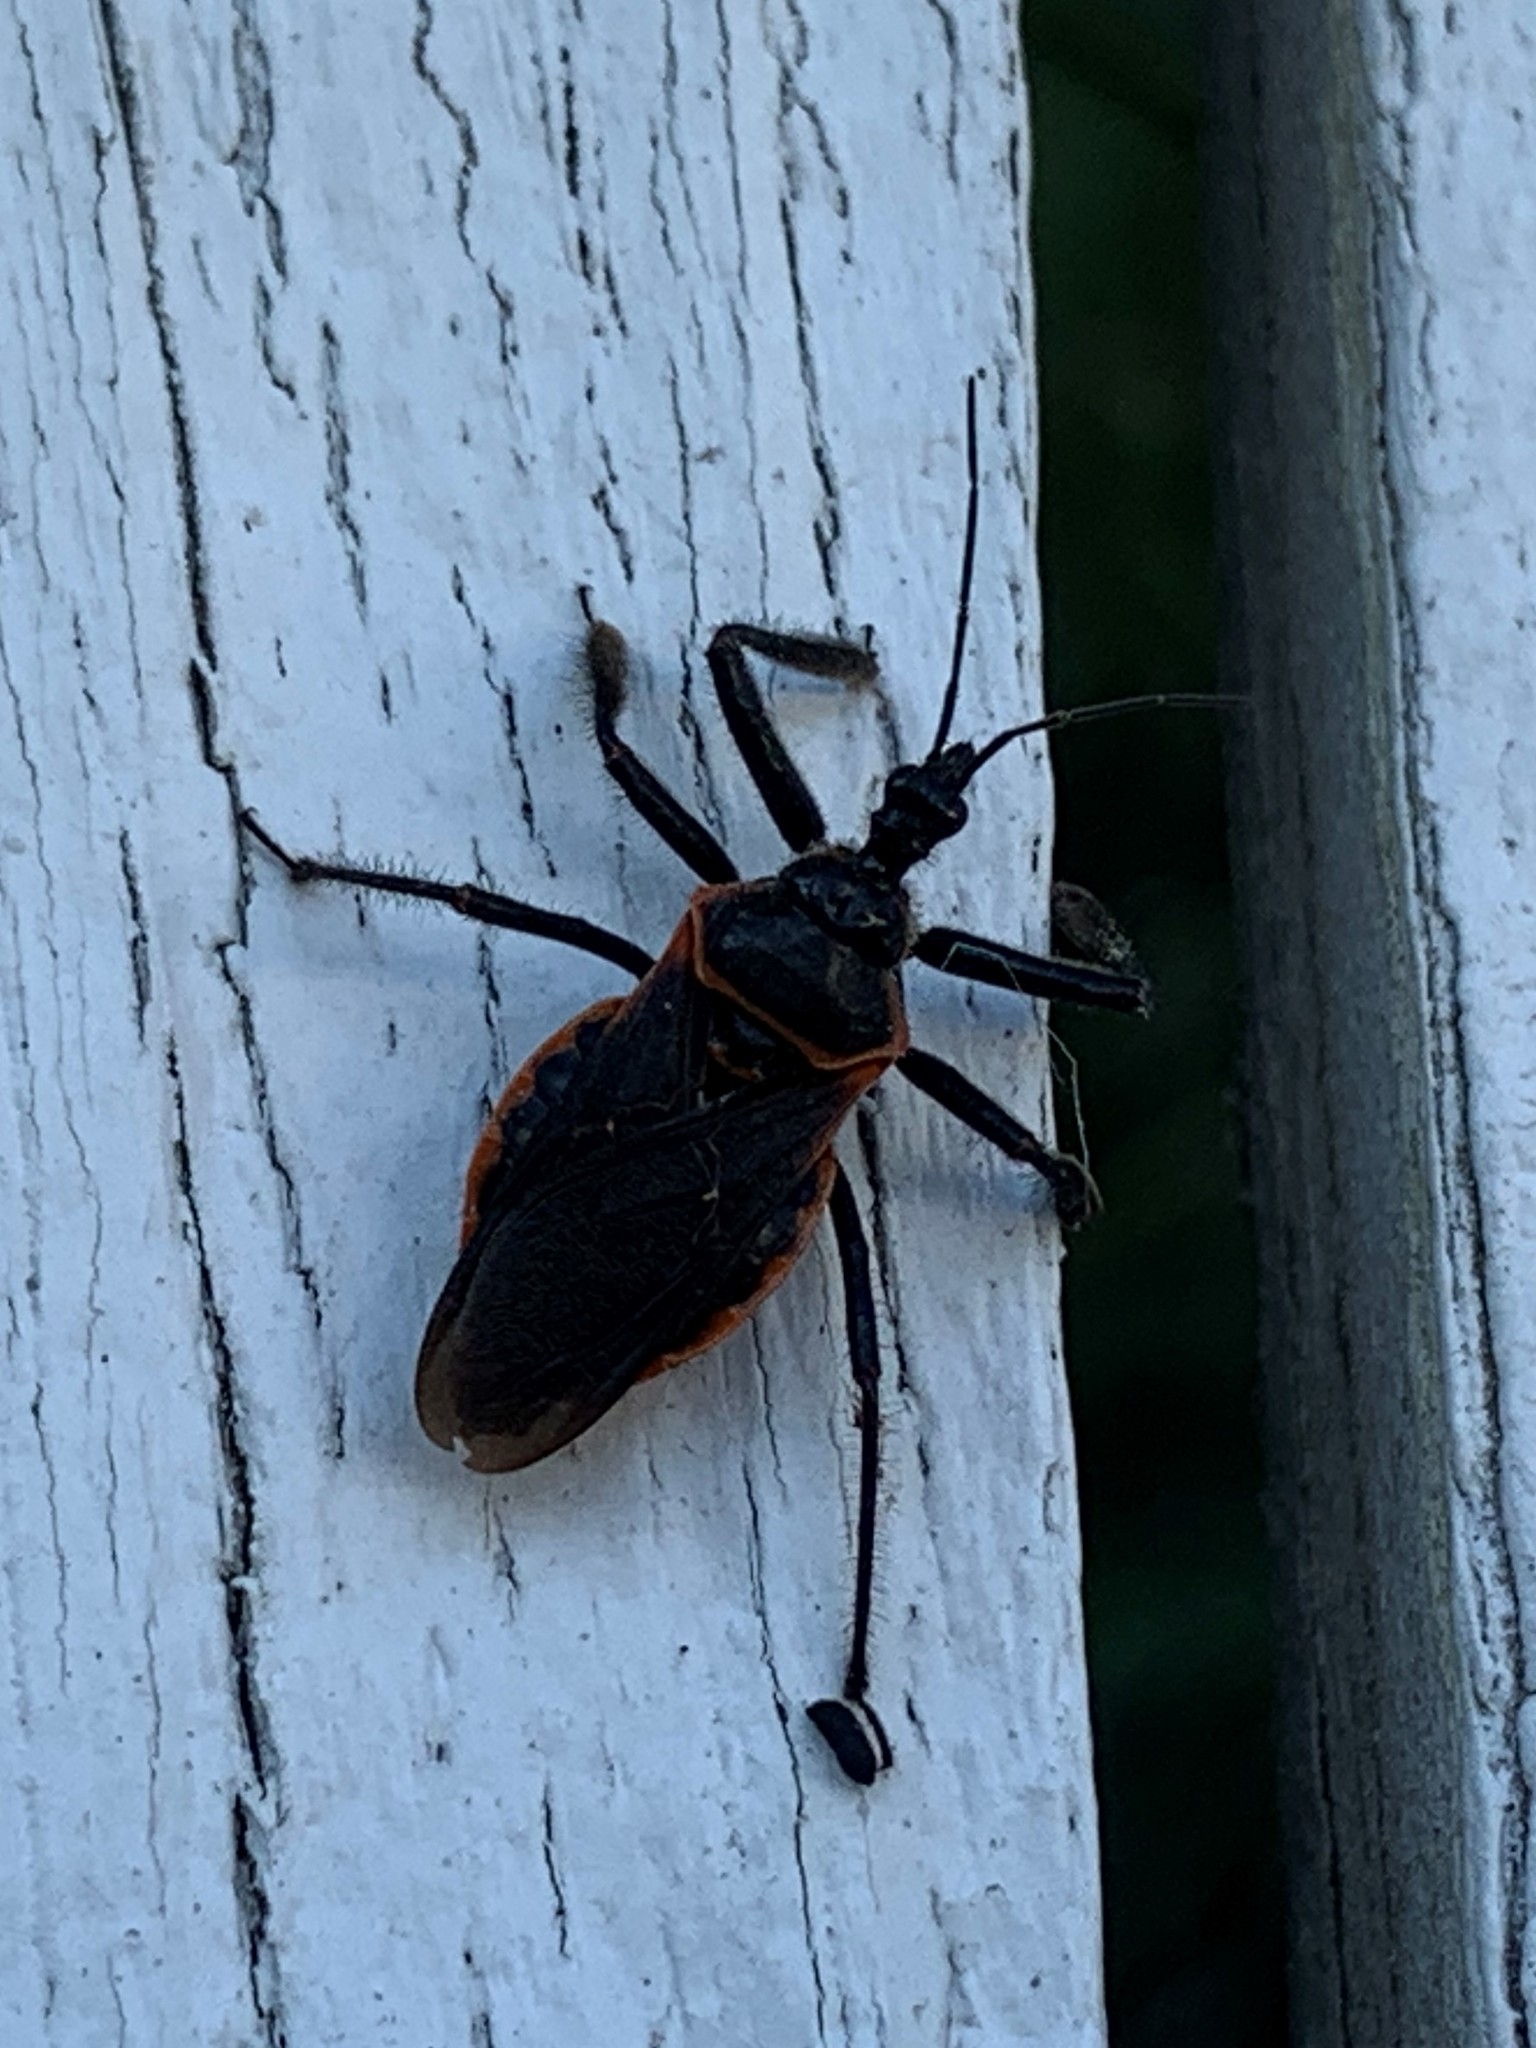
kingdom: Animalia
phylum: Arthropoda
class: Insecta
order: Hemiptera
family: Reduviidae
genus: Apiomerus
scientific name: Apiomerus crassipes
